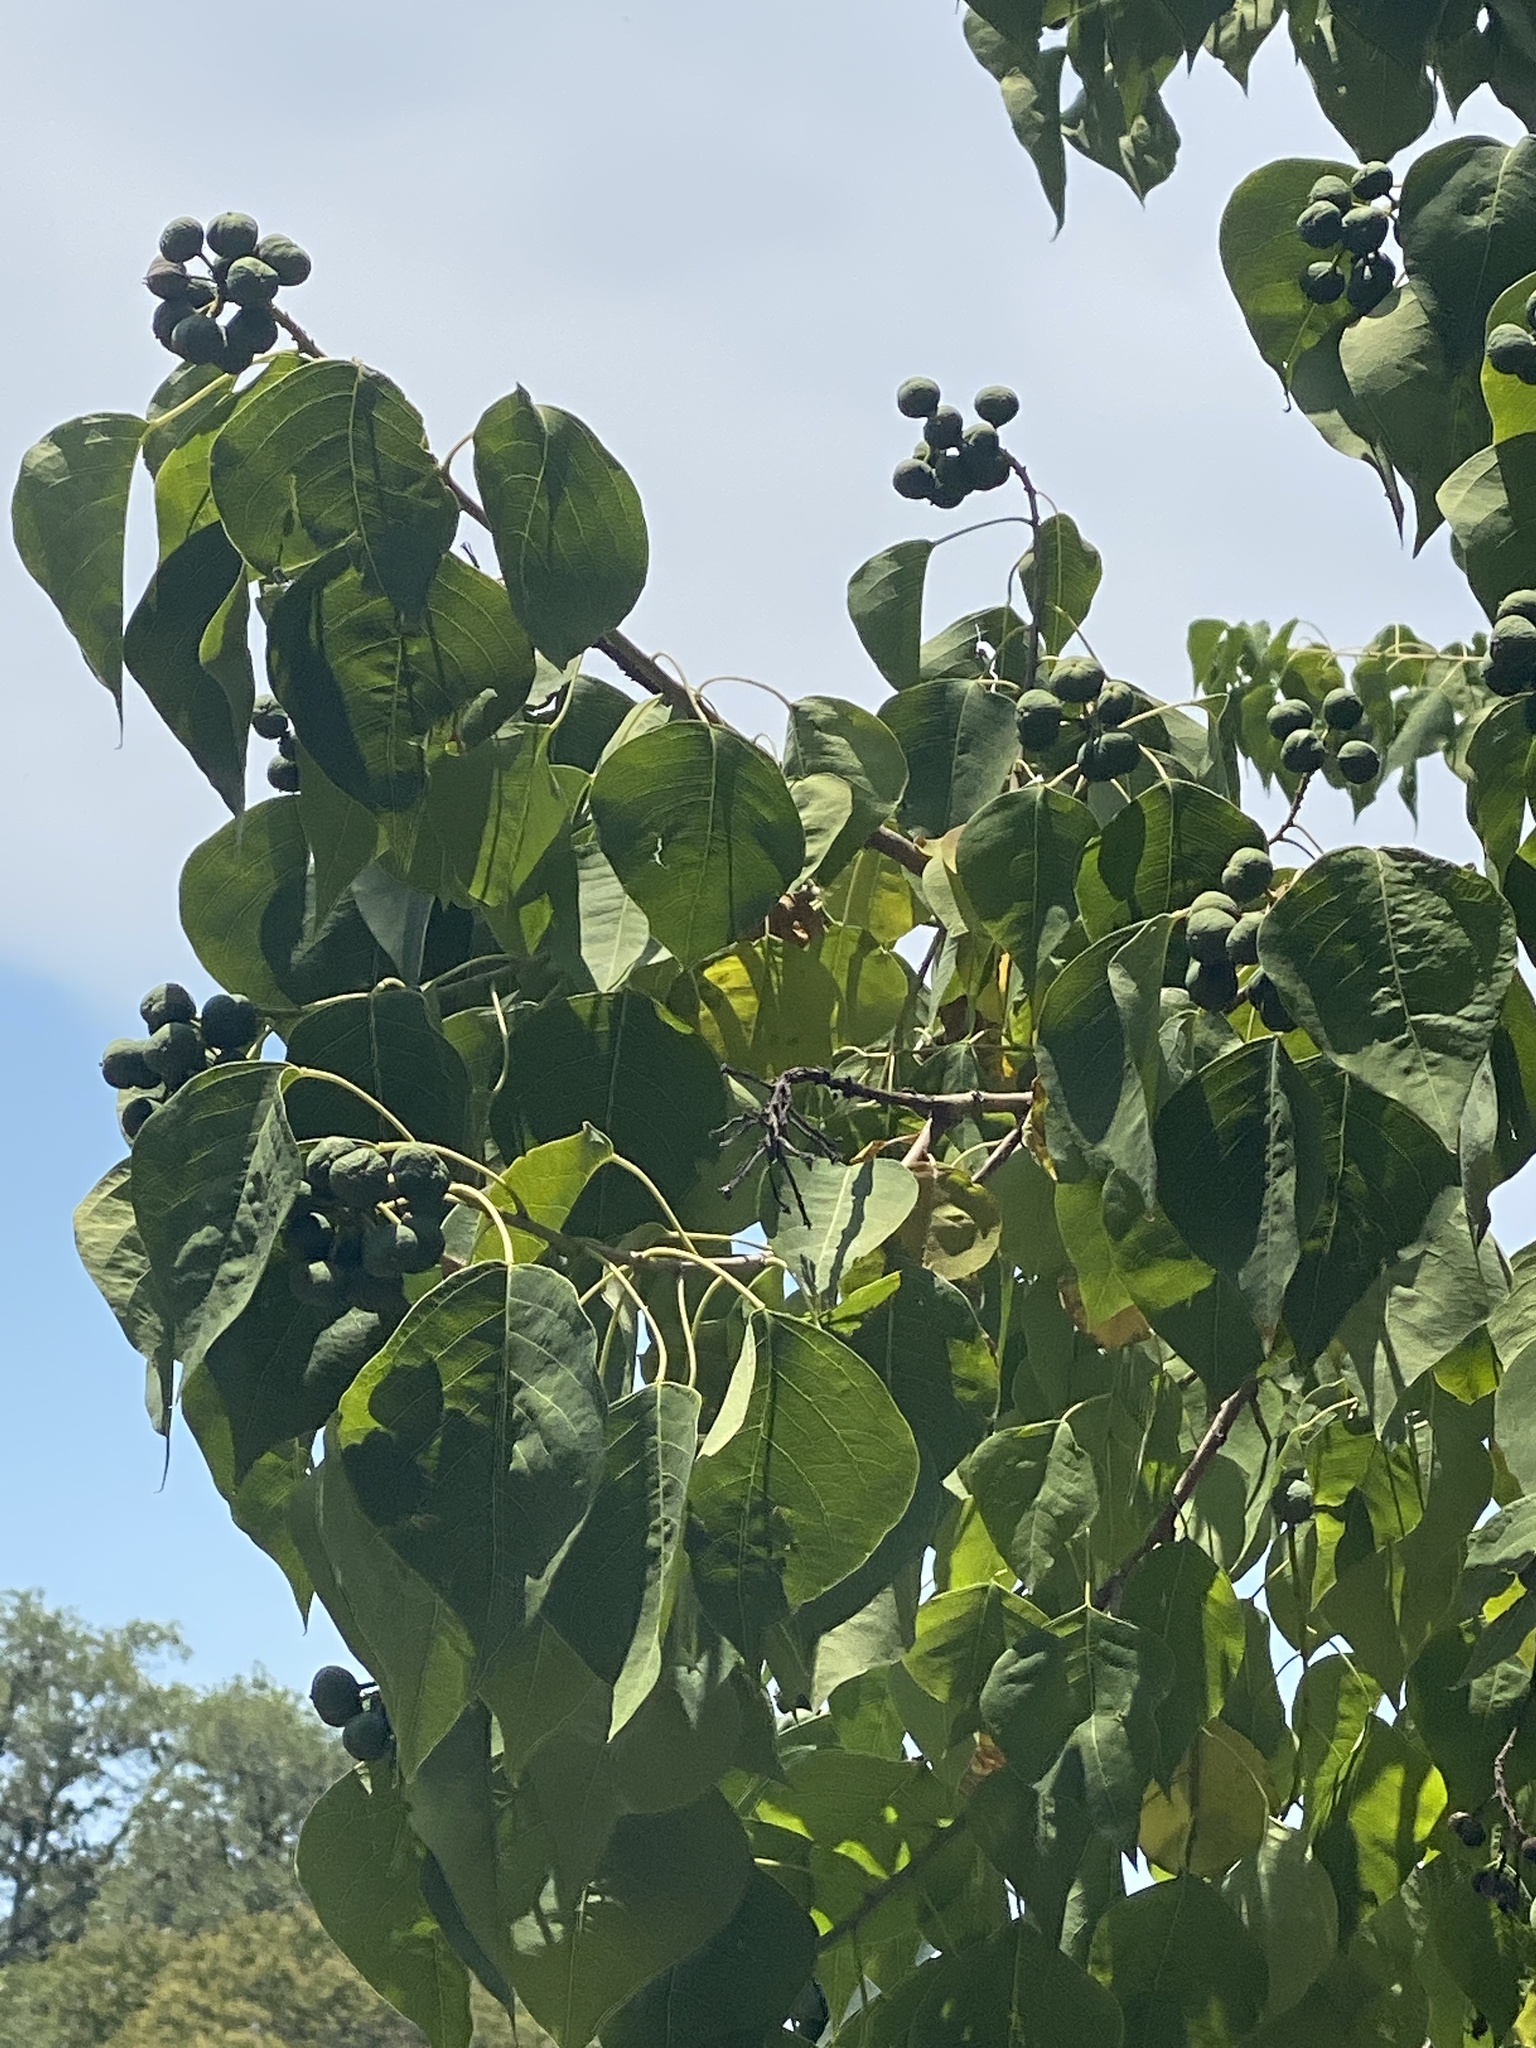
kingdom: Plantae
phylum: Tracheophyta
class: Magnoliopsida
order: Malpighiales
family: Euphorbiaceae
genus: Triadica
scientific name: Triadica sebifera
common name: Chinese tallow
